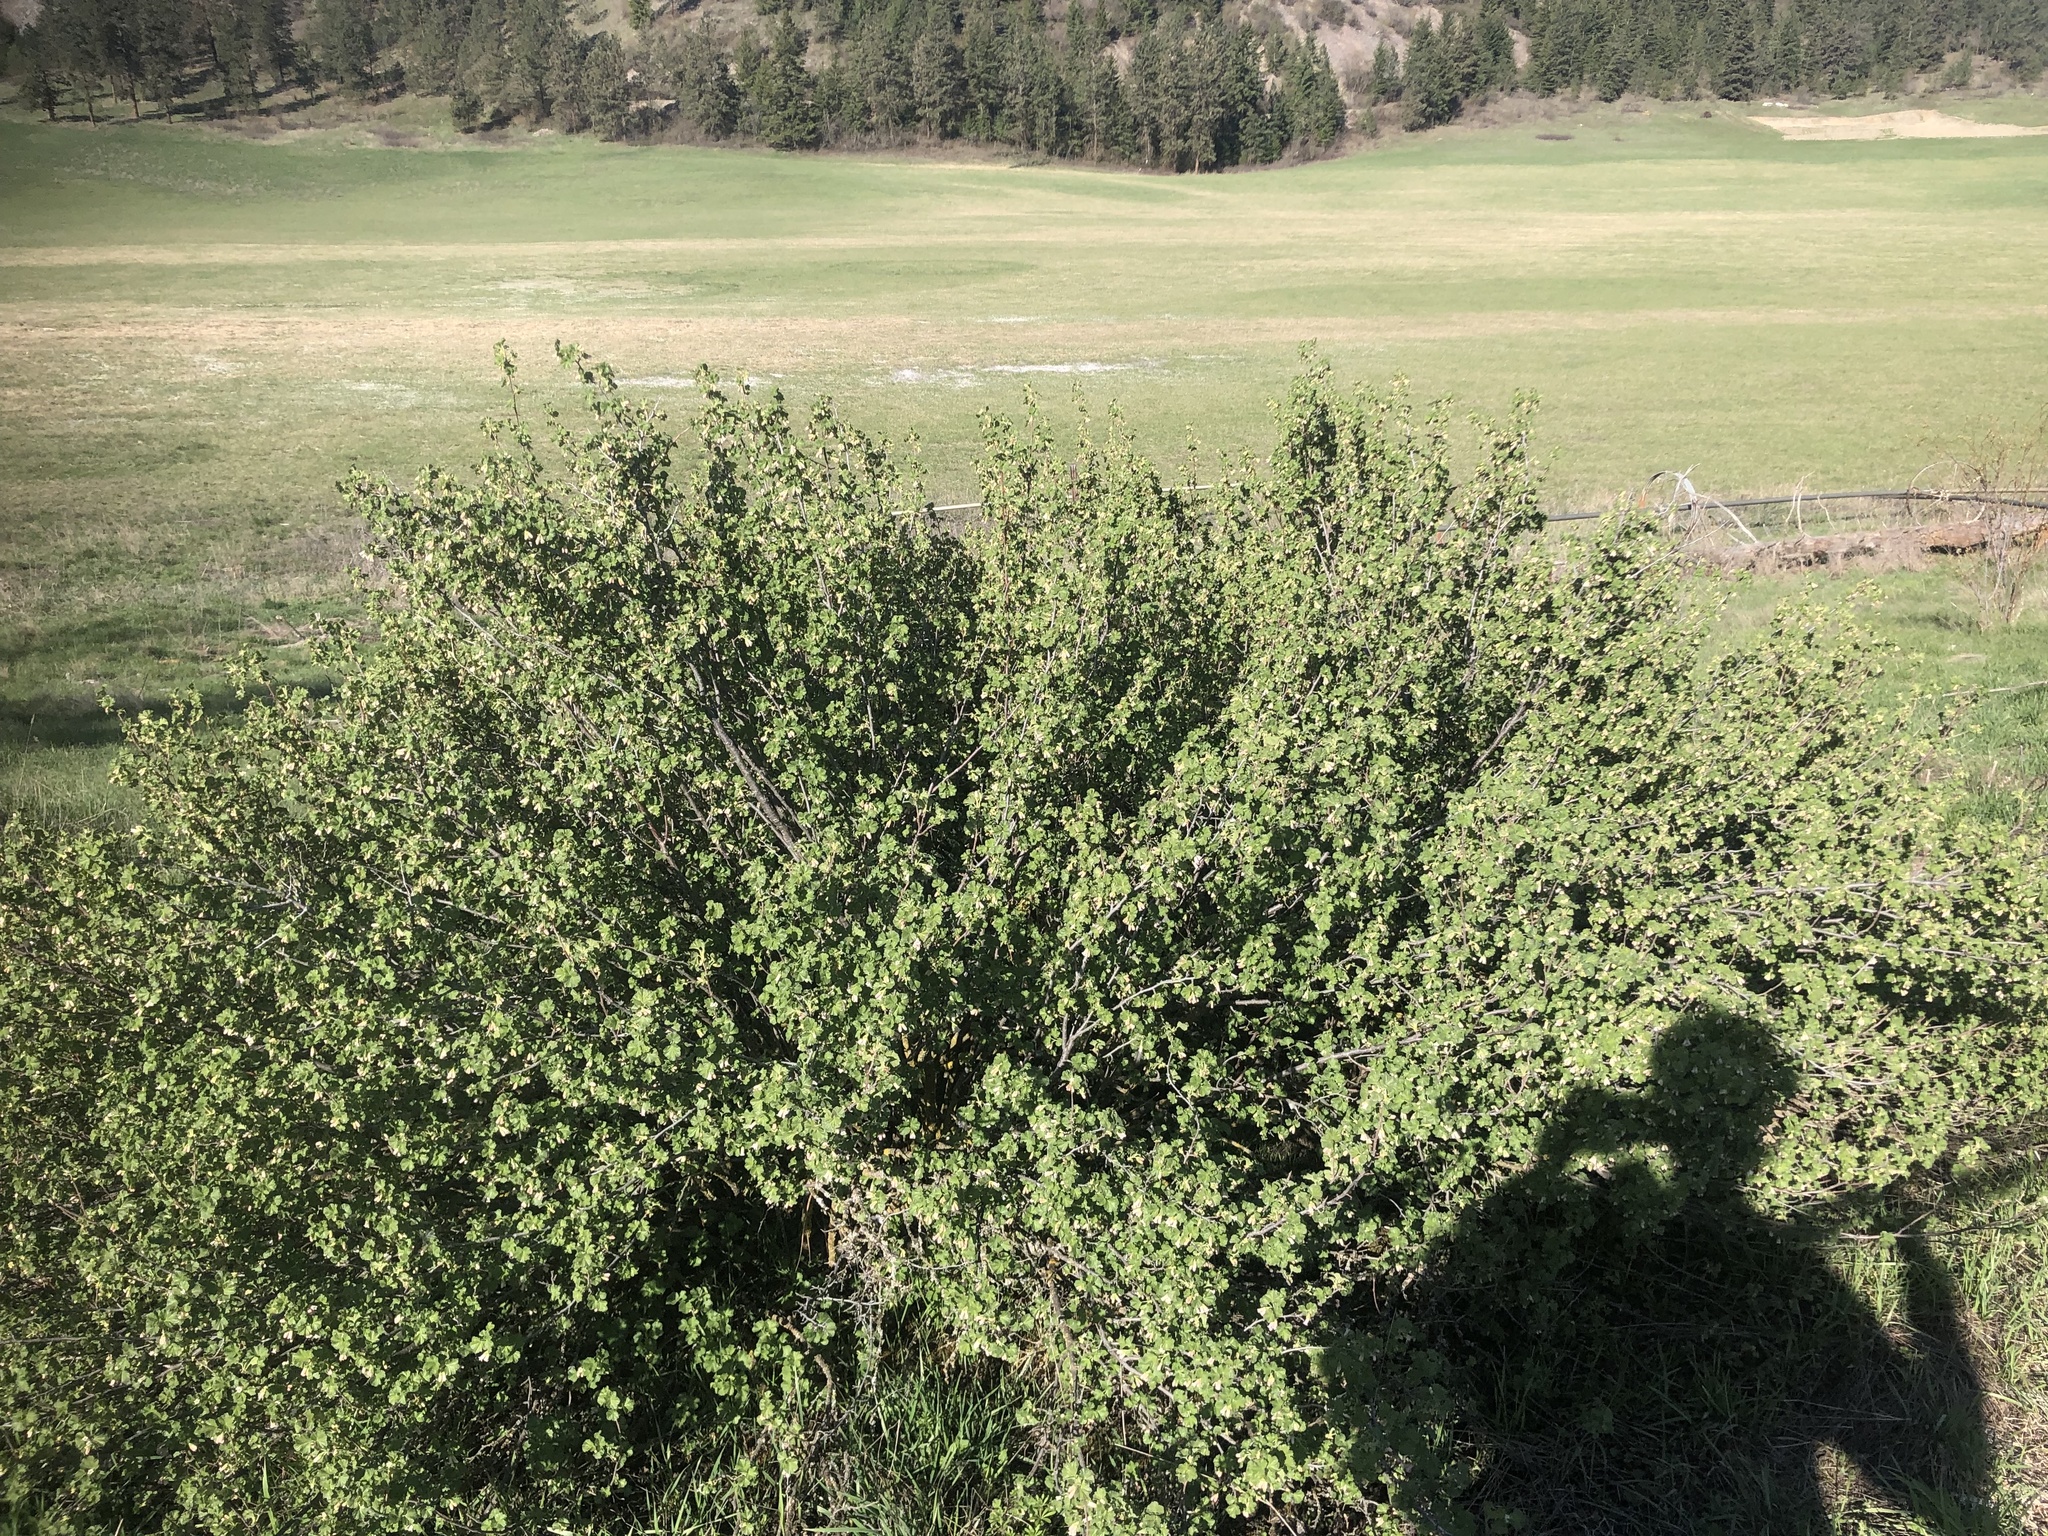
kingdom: Plantae
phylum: Tracheophyta
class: Magnoliopsida
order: Saxifragales
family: Grossulariaceae
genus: Ribes
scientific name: Ribes cereum
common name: Wax currant
